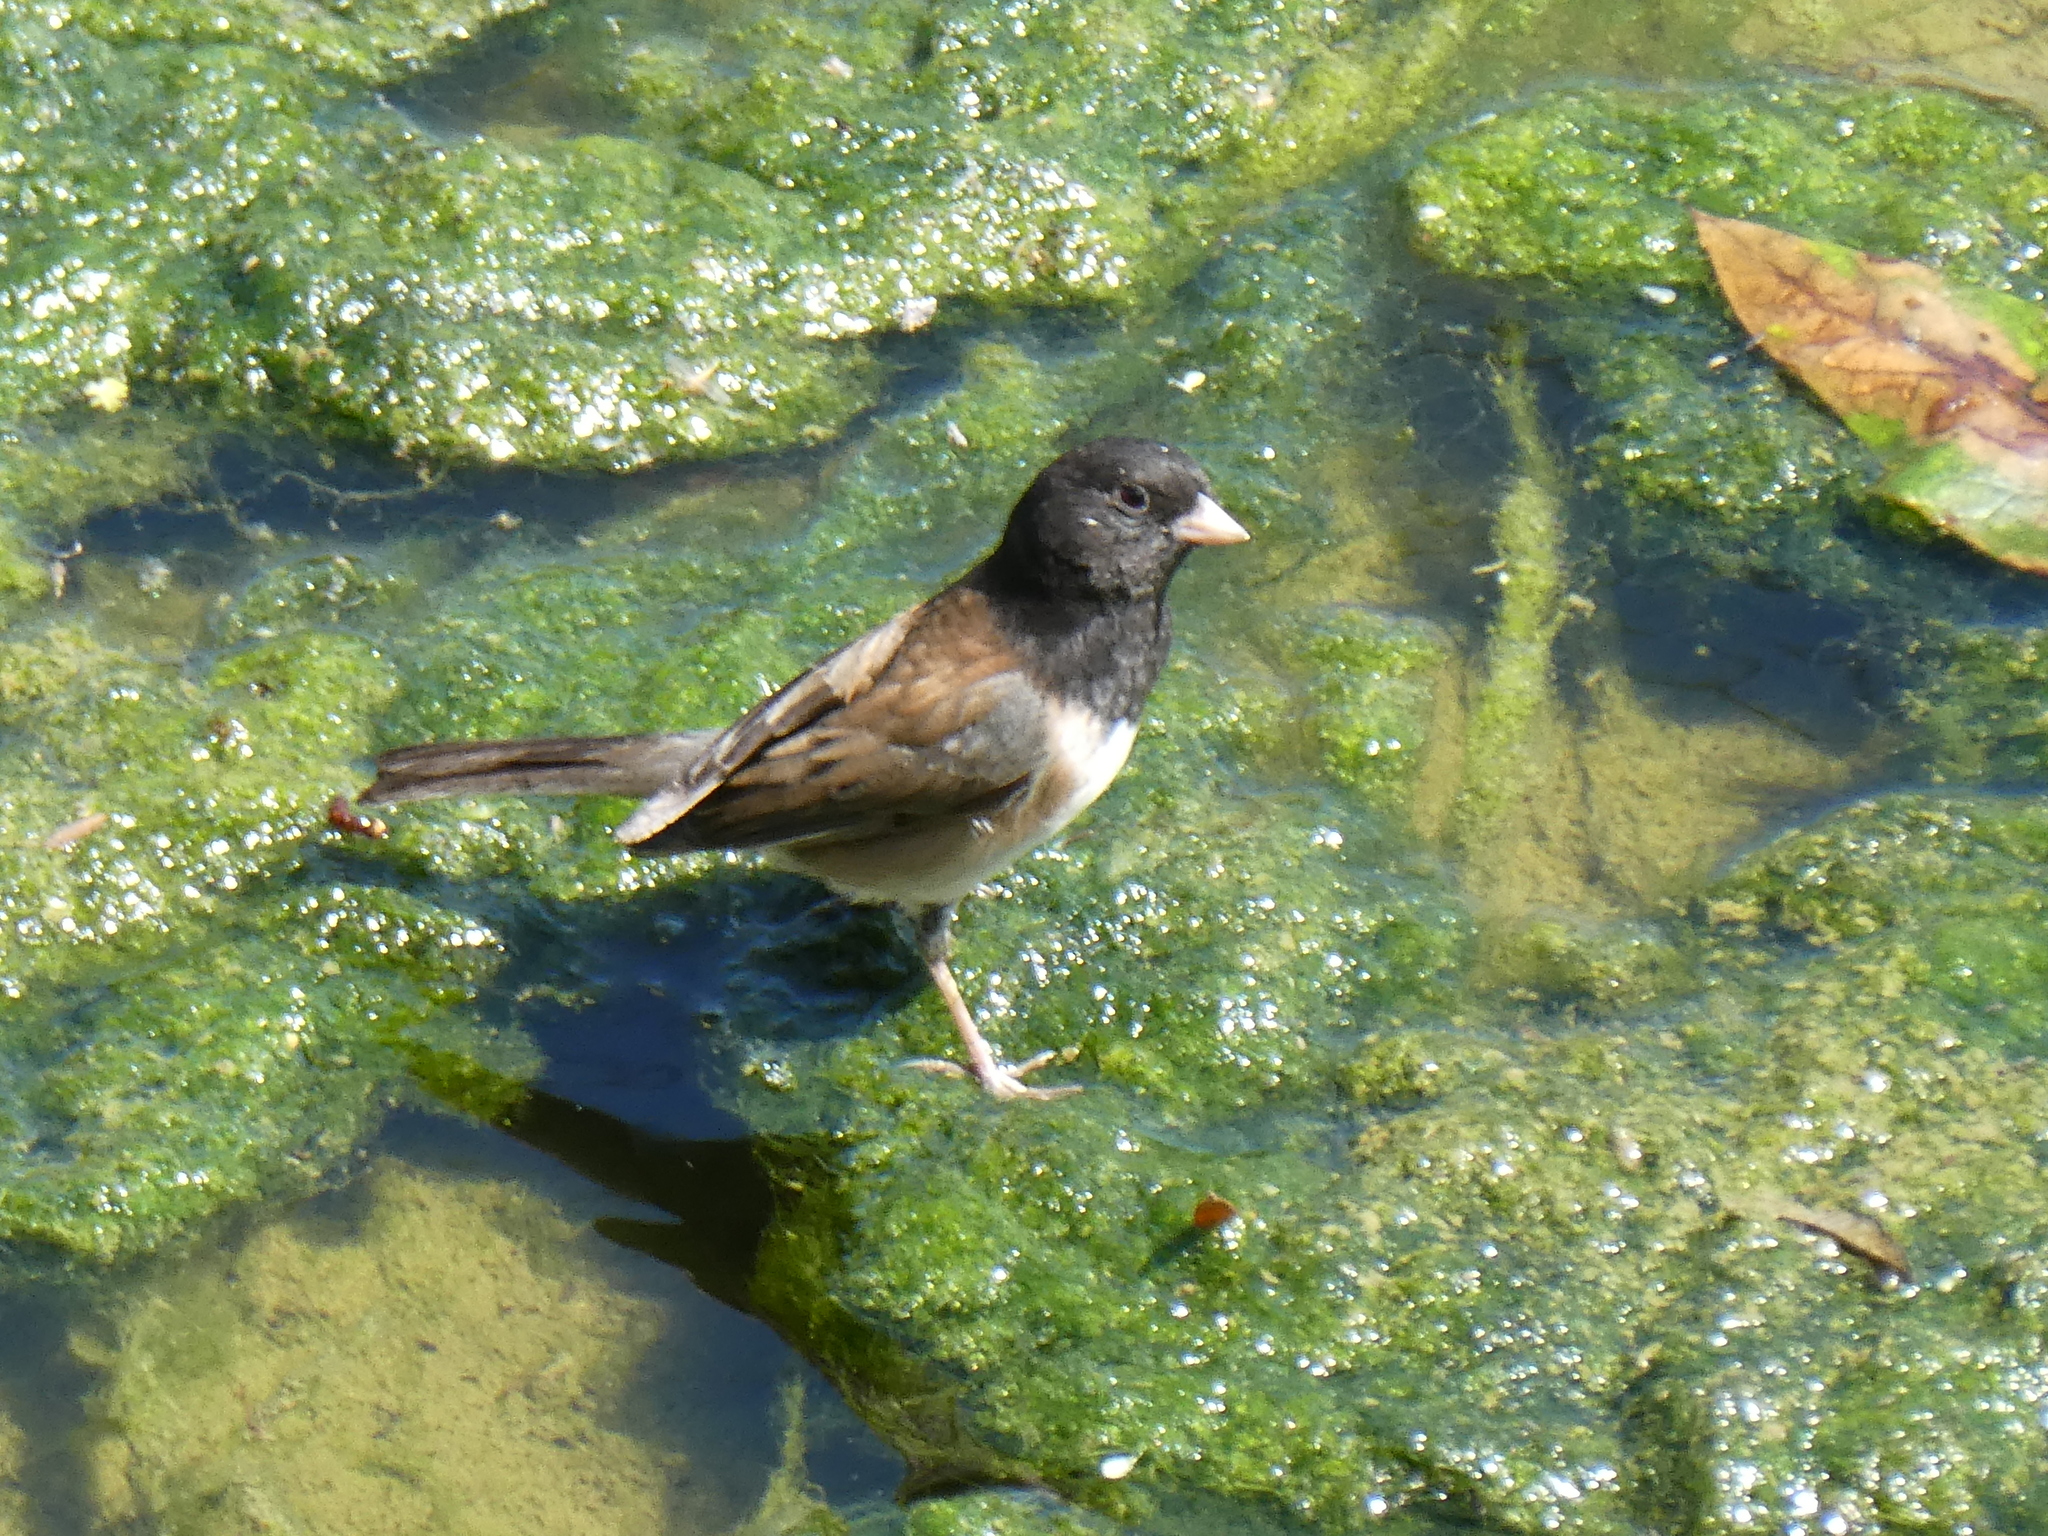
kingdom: Animalia
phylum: Chordata
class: Aves
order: Passeriformes
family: Passerellidae
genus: Junco
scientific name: Junco hyemalis
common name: Dark-eyed junco
